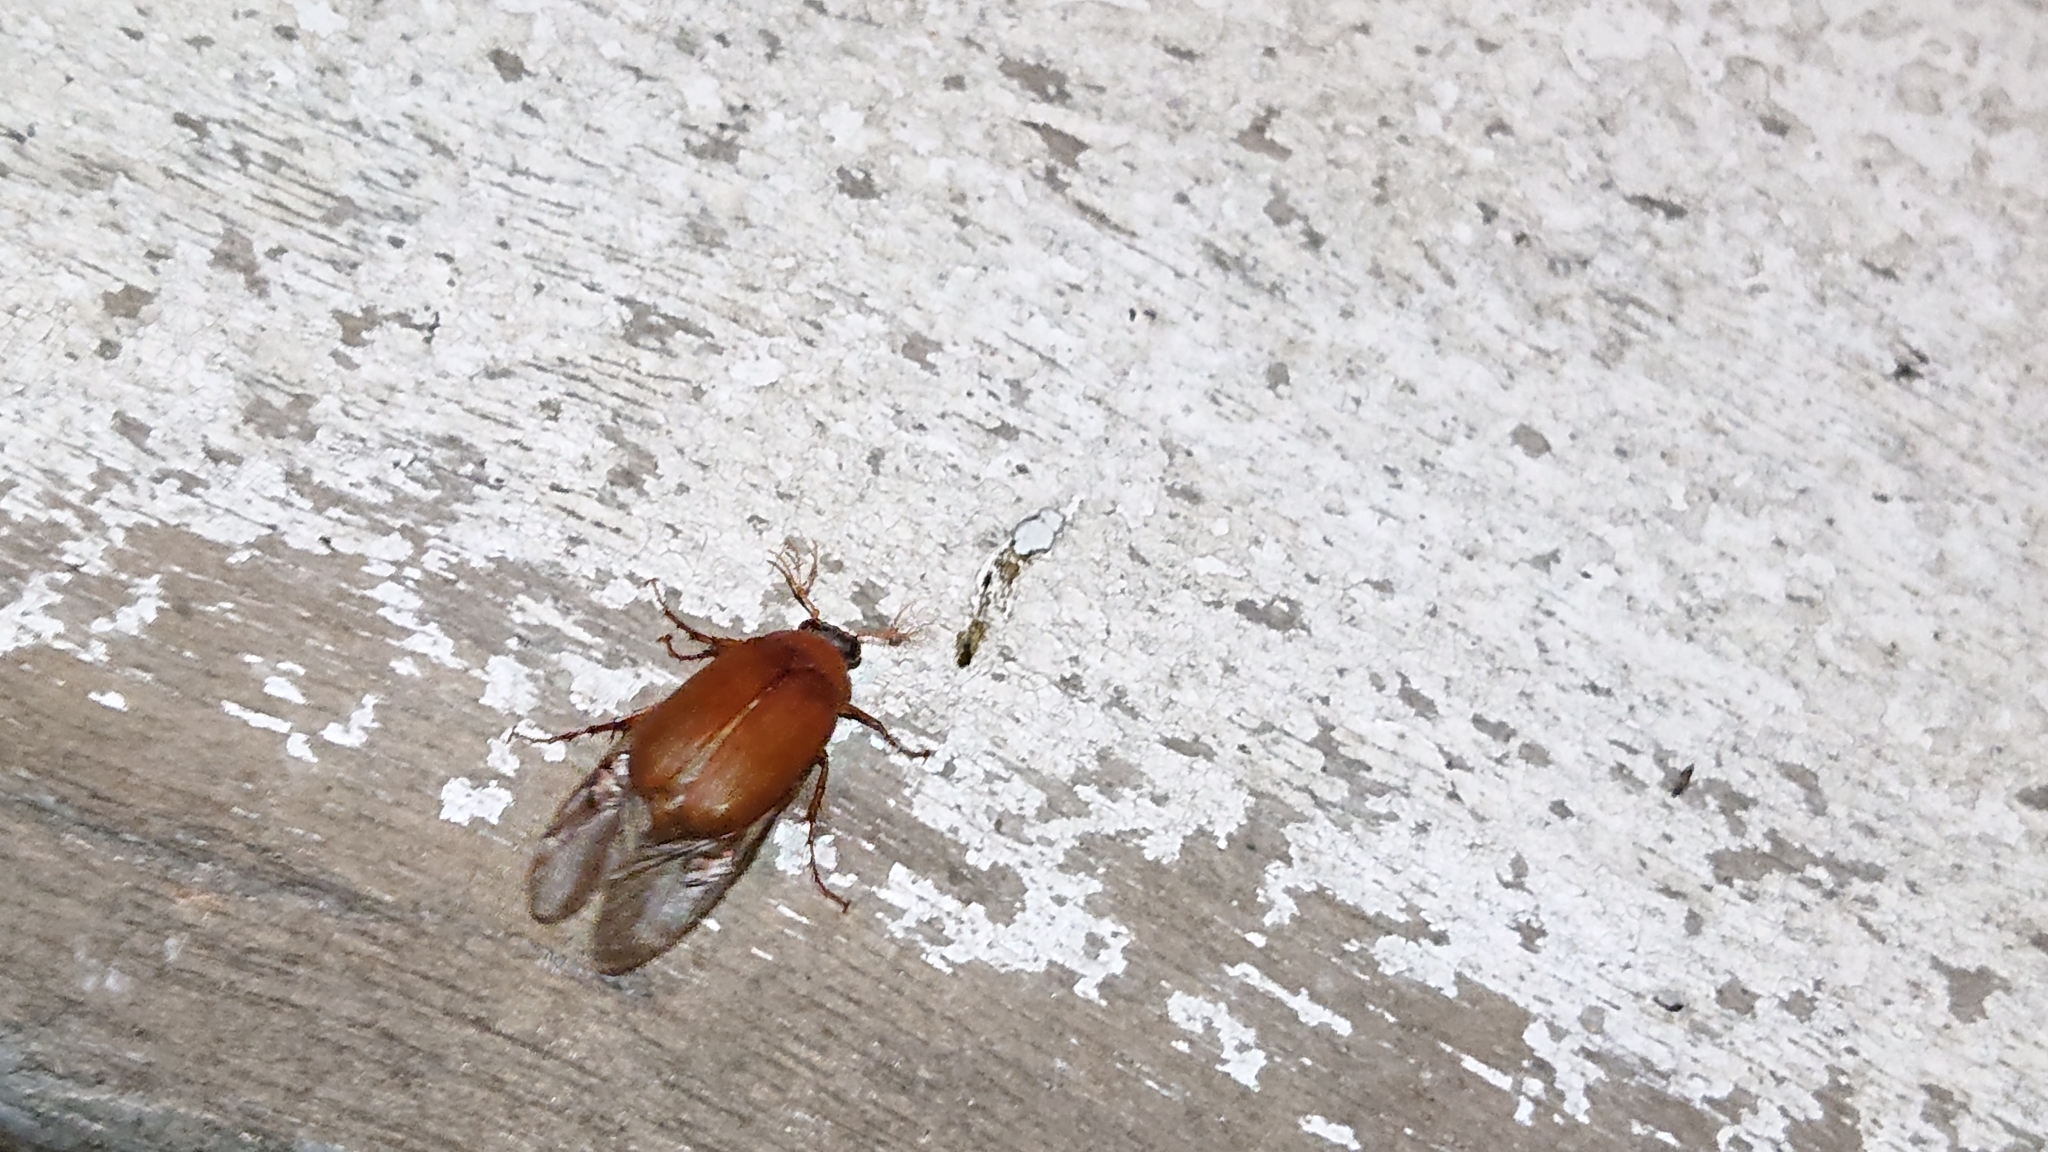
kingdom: Animalia
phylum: Arthropoda
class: Insecta
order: Coleoptera
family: Scarabaeidae
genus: Serica
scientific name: Serica brunnea
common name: Brown chafer
